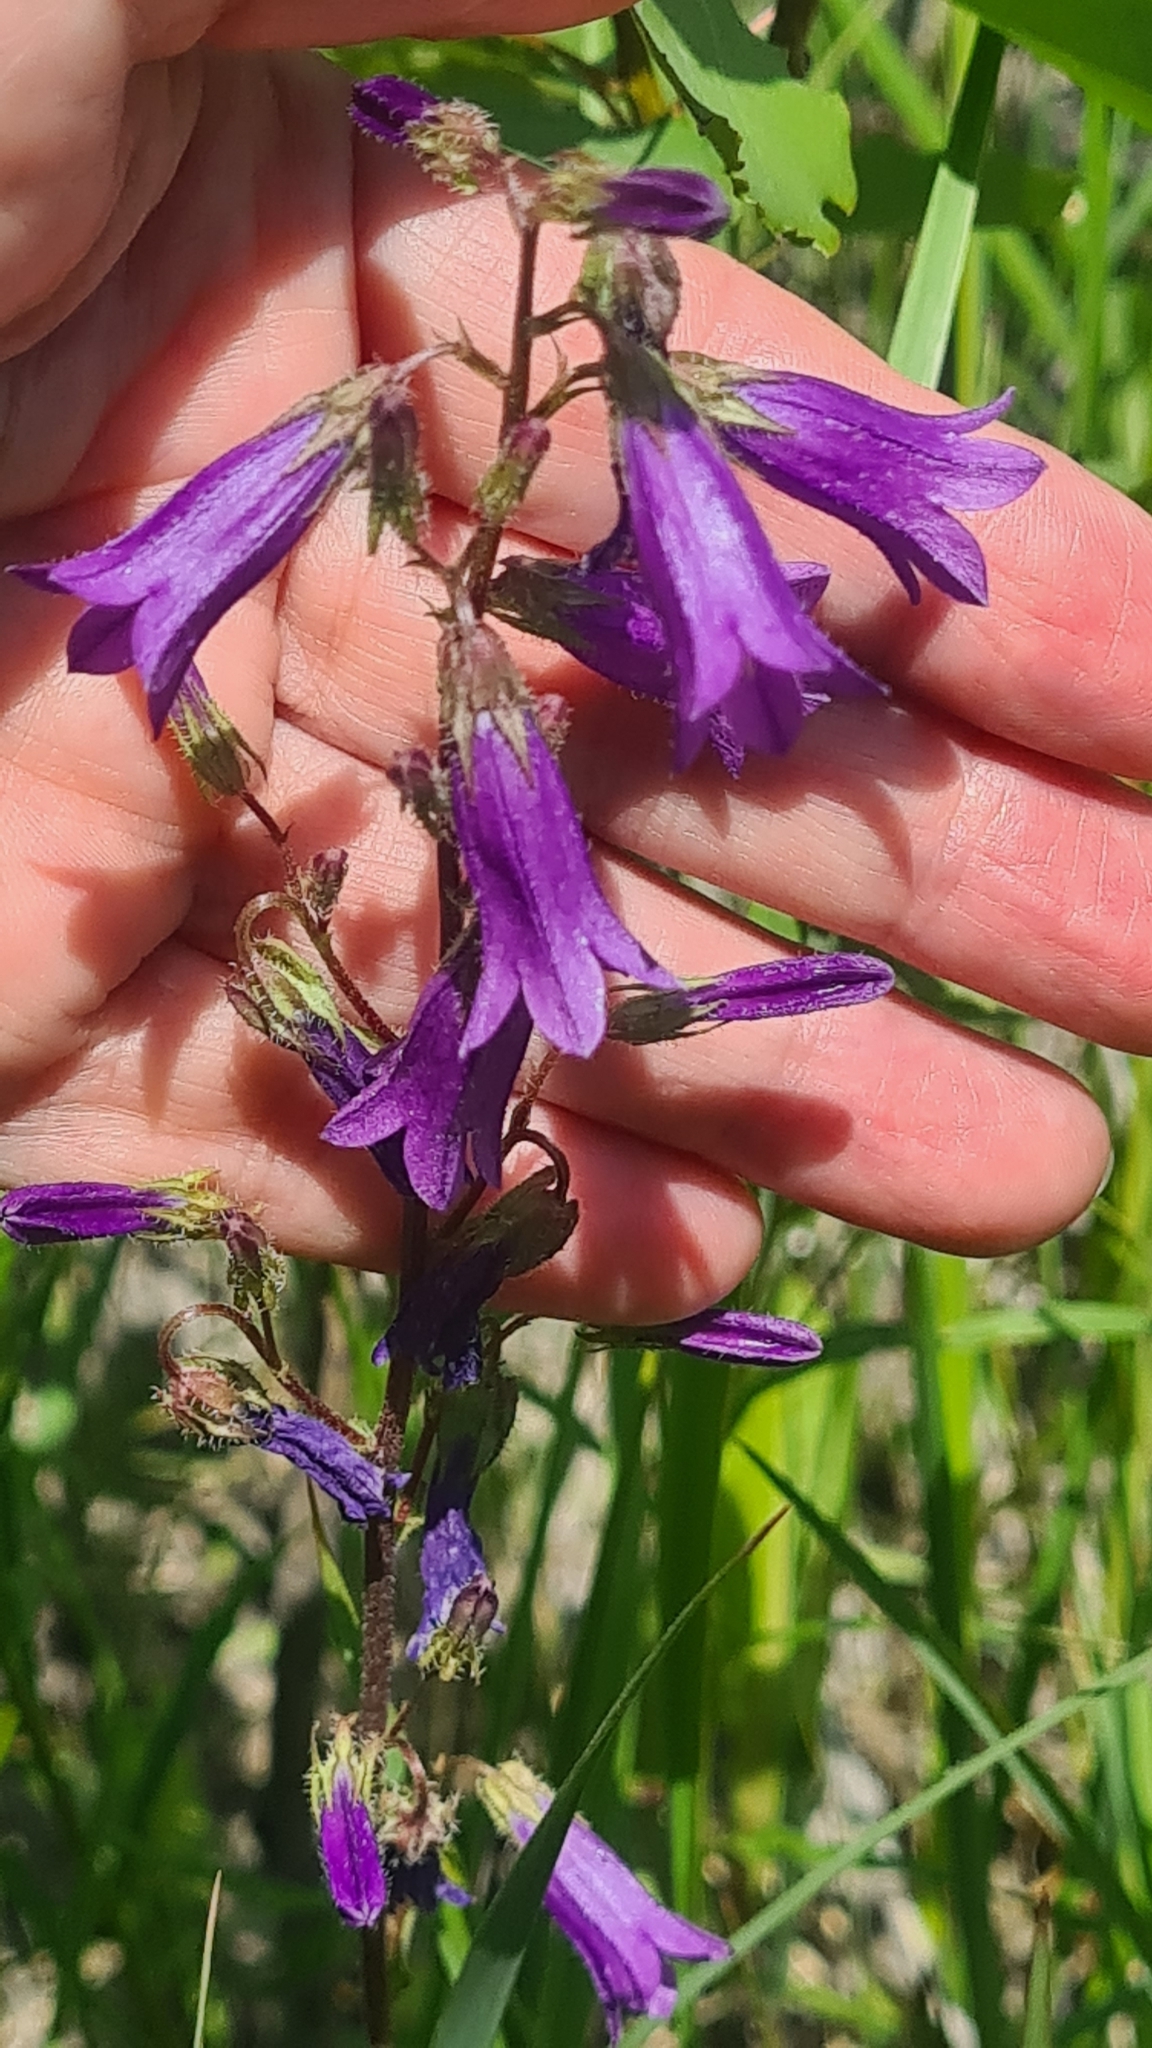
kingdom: Plantae
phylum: Tracheophyta
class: Magnoliopsida
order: Asterales
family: Campanulaceae
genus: Campanula
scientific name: Campanula sibirica
